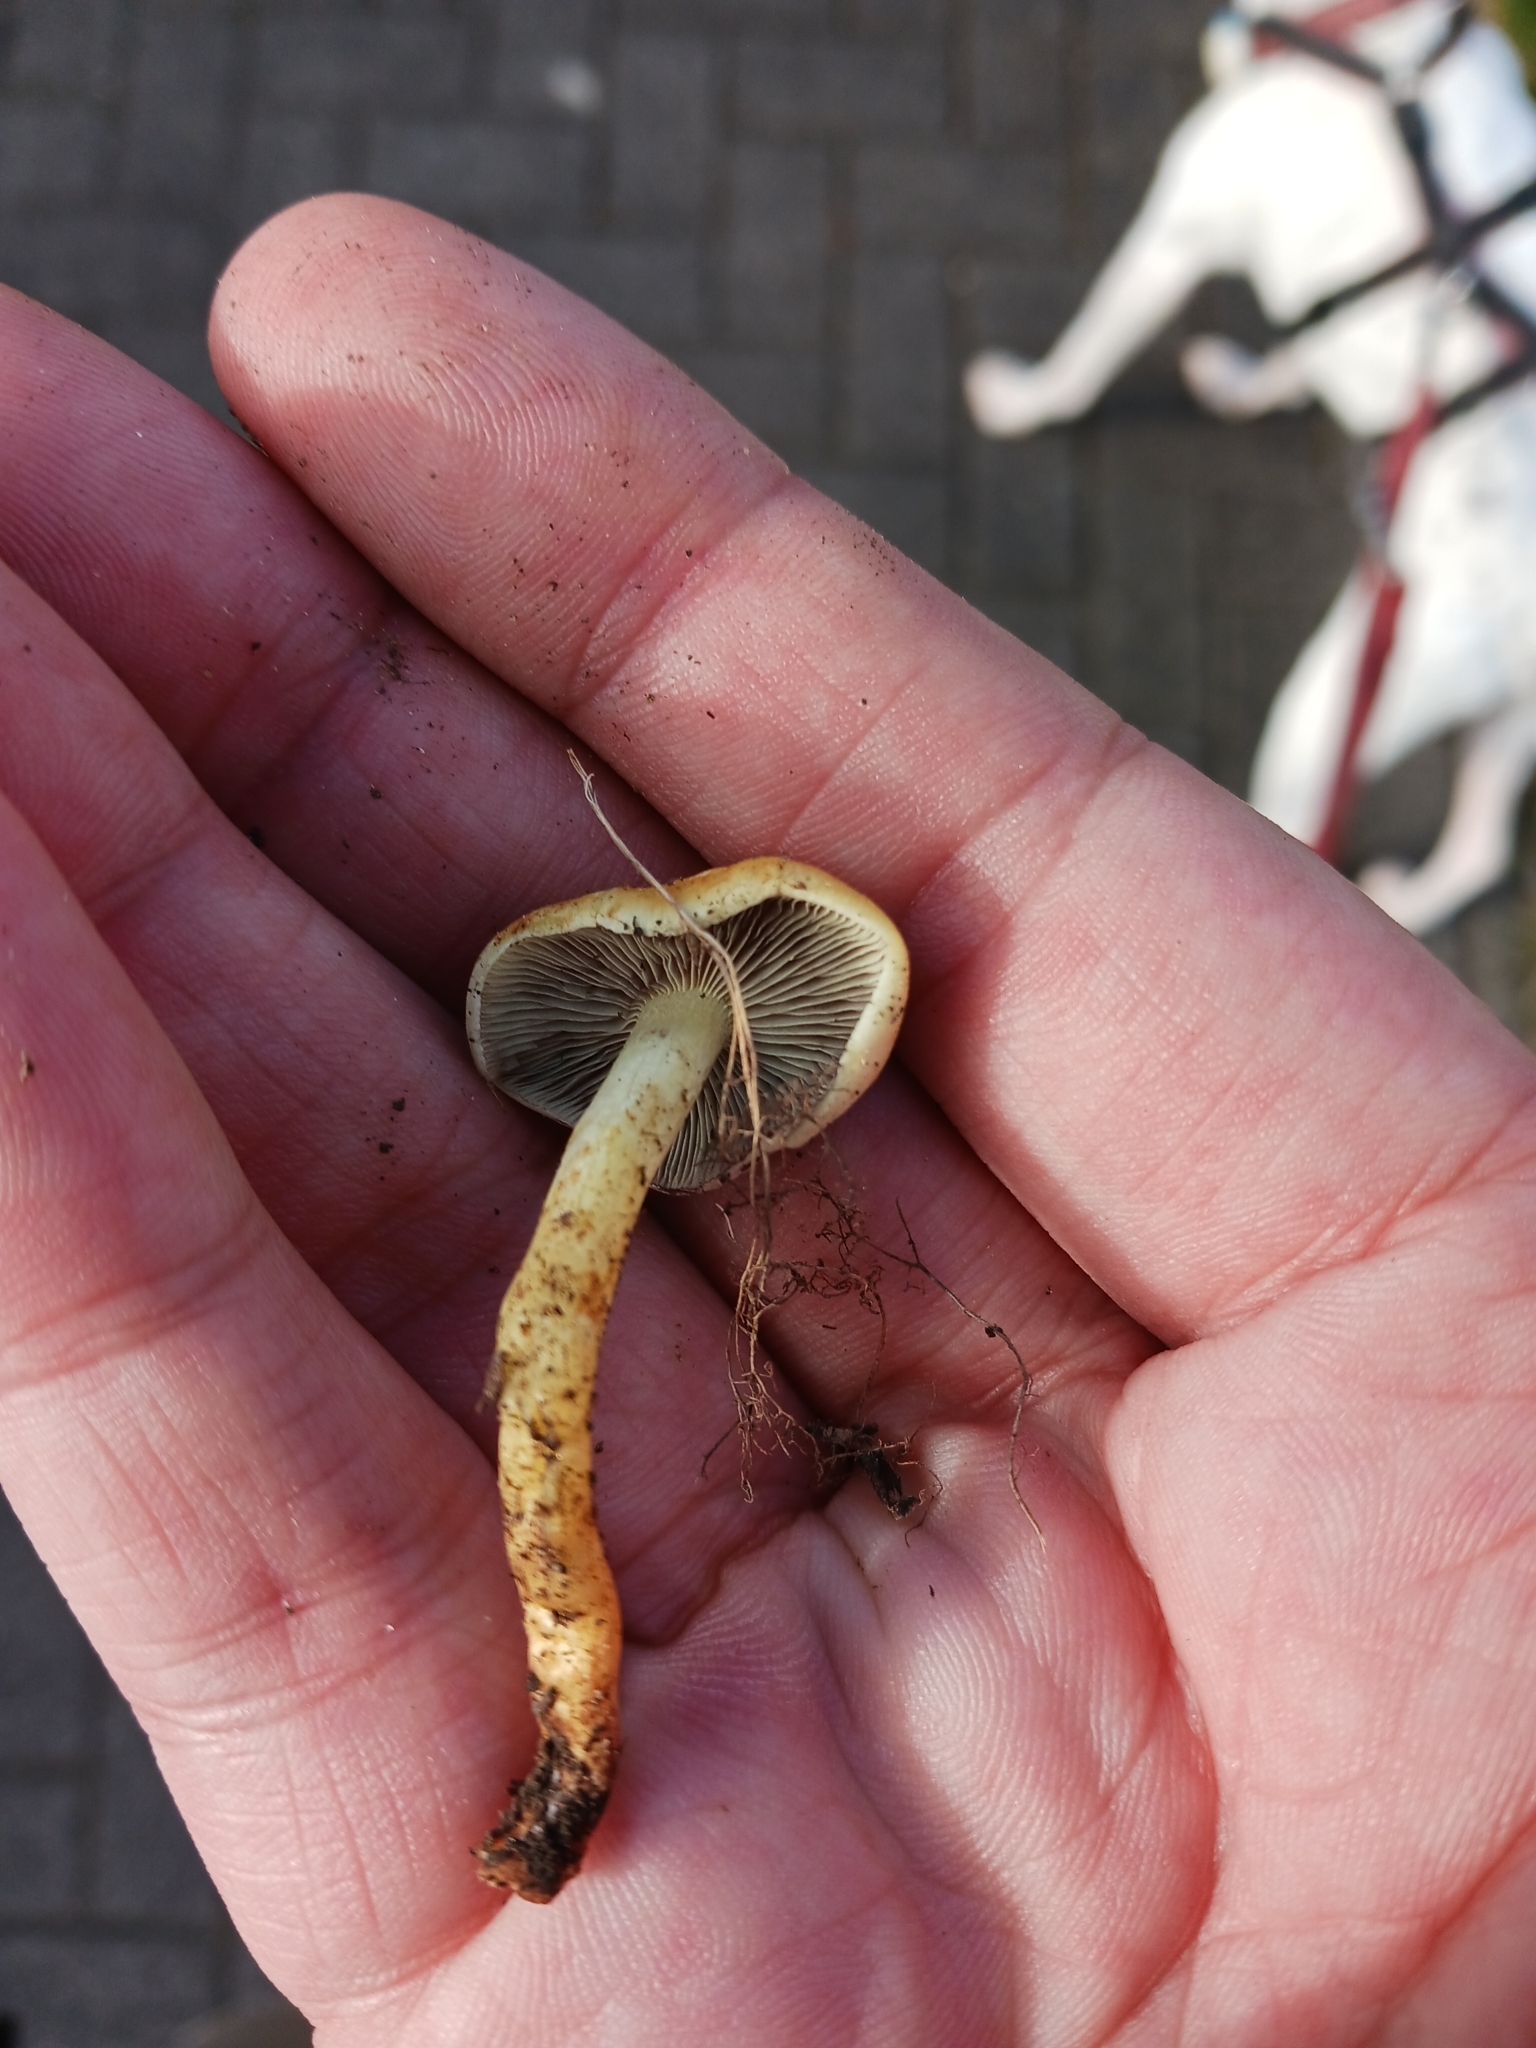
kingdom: Fungi
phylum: Basidiomycota
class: Agaricomycetes
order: Agaricales
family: Strophariaceae
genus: Hypholoma
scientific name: Hypholoma fasciculare
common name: Sulphur tuft
